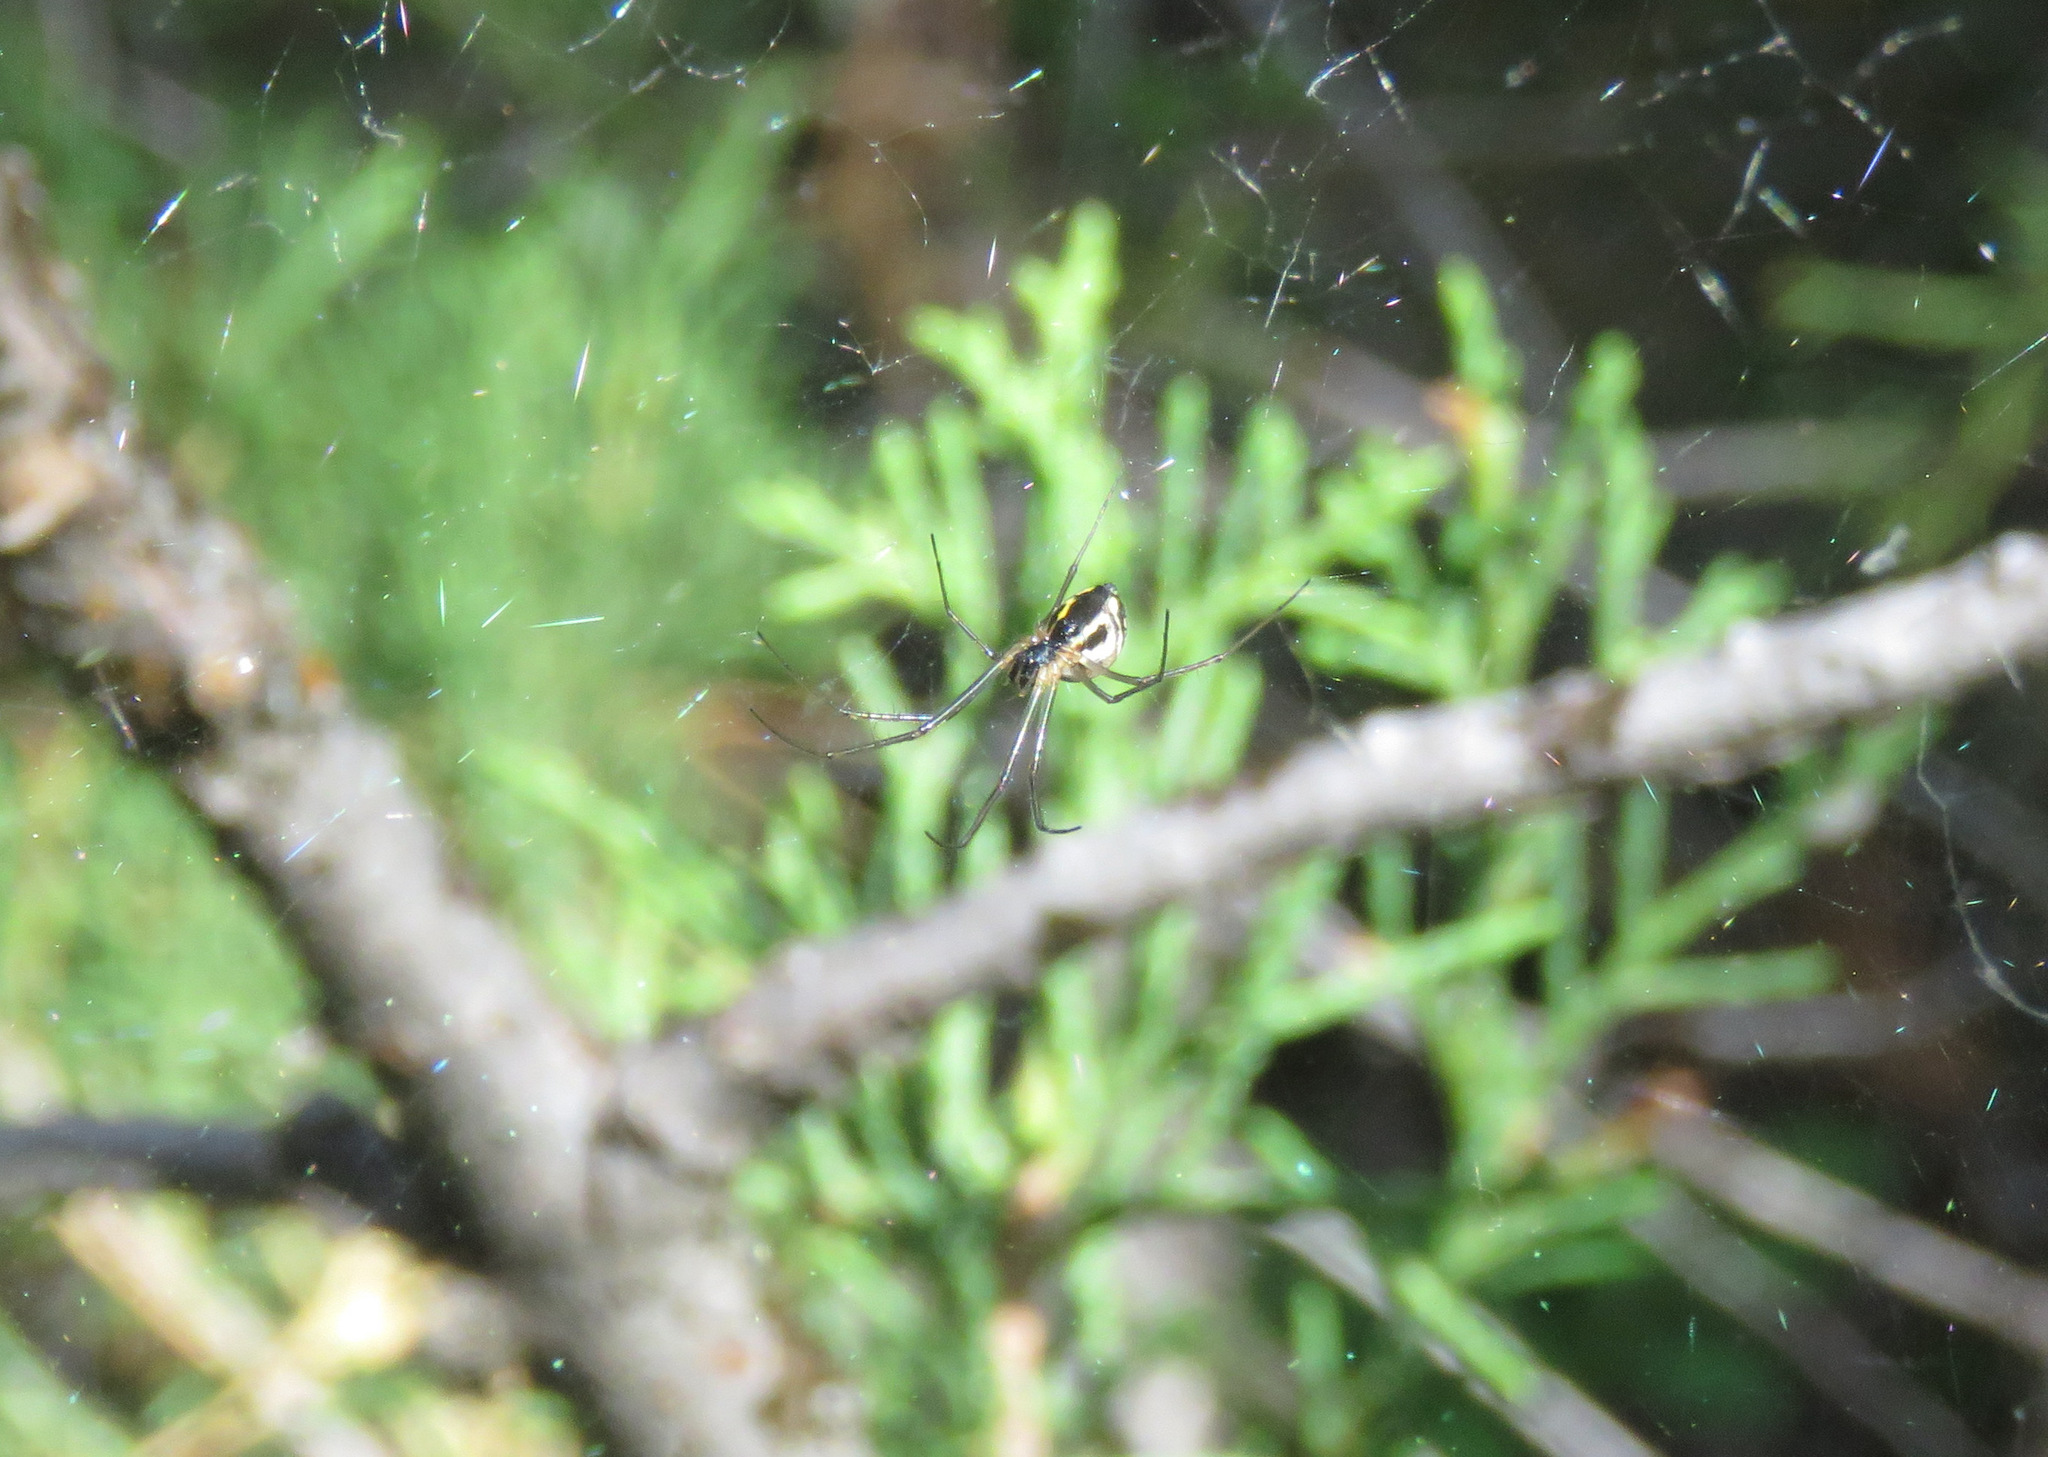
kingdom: Animalia
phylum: Arthropoda
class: Arachnida
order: Araneae
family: Linyphiidae
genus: Neriene
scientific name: Neriene radiata
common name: Filmy dome spider
